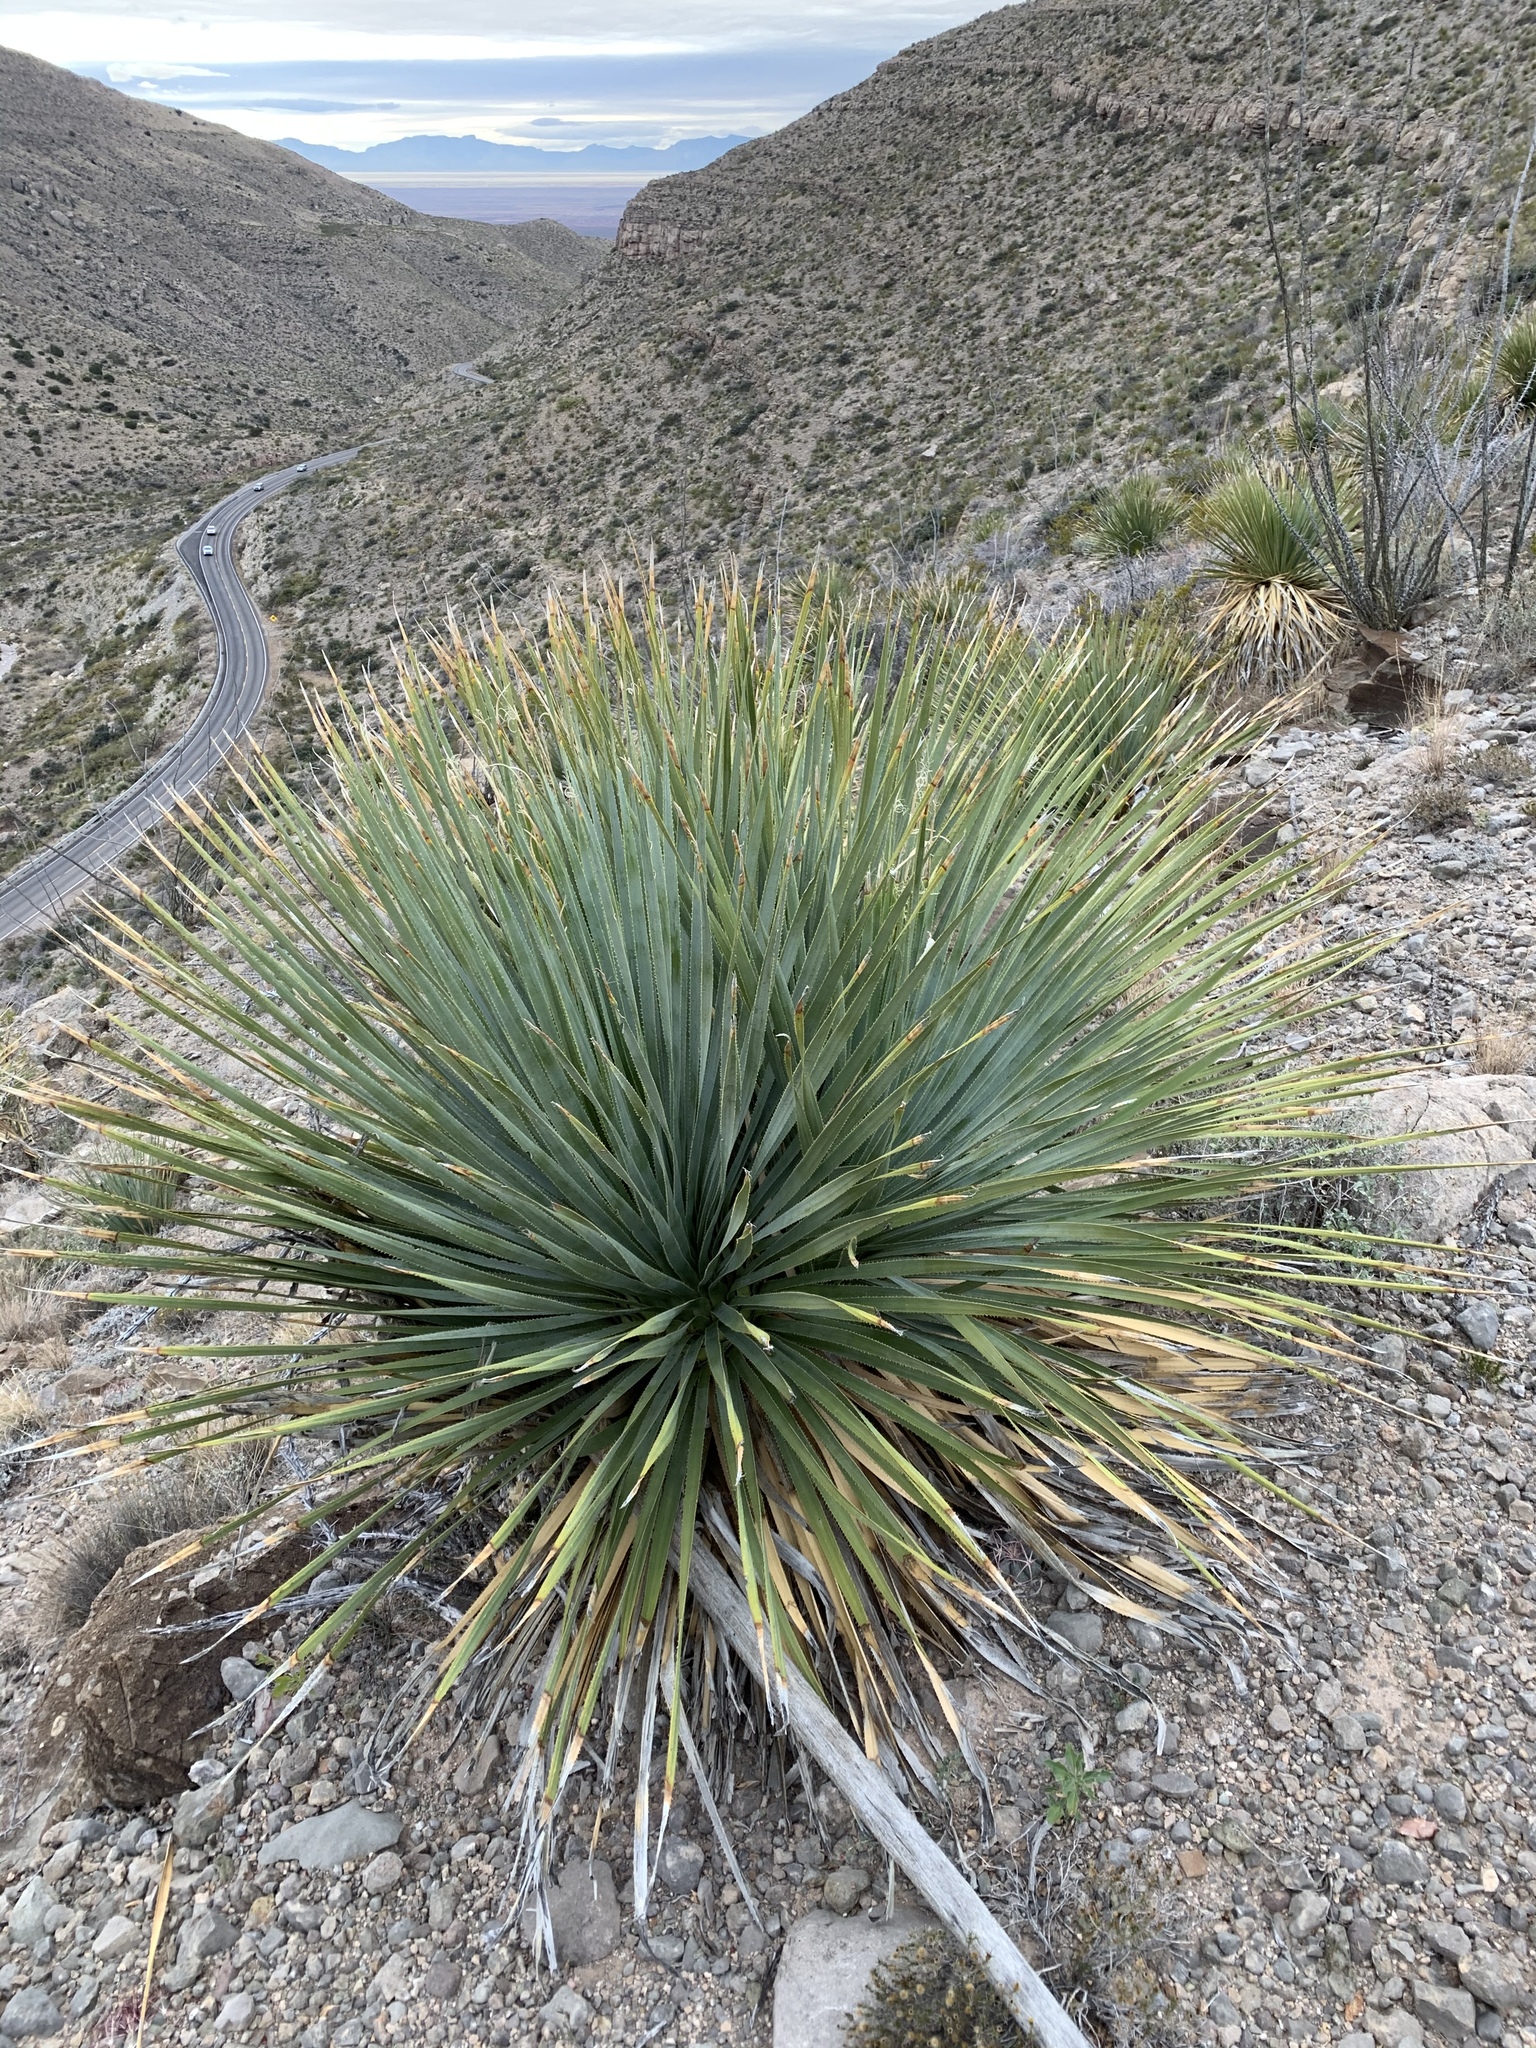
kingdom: Plantae
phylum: Tracheophyta
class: Liliopsida
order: Asparagales
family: Asparagaceae
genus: Dasylirion
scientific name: Dasylirion wheeleri
